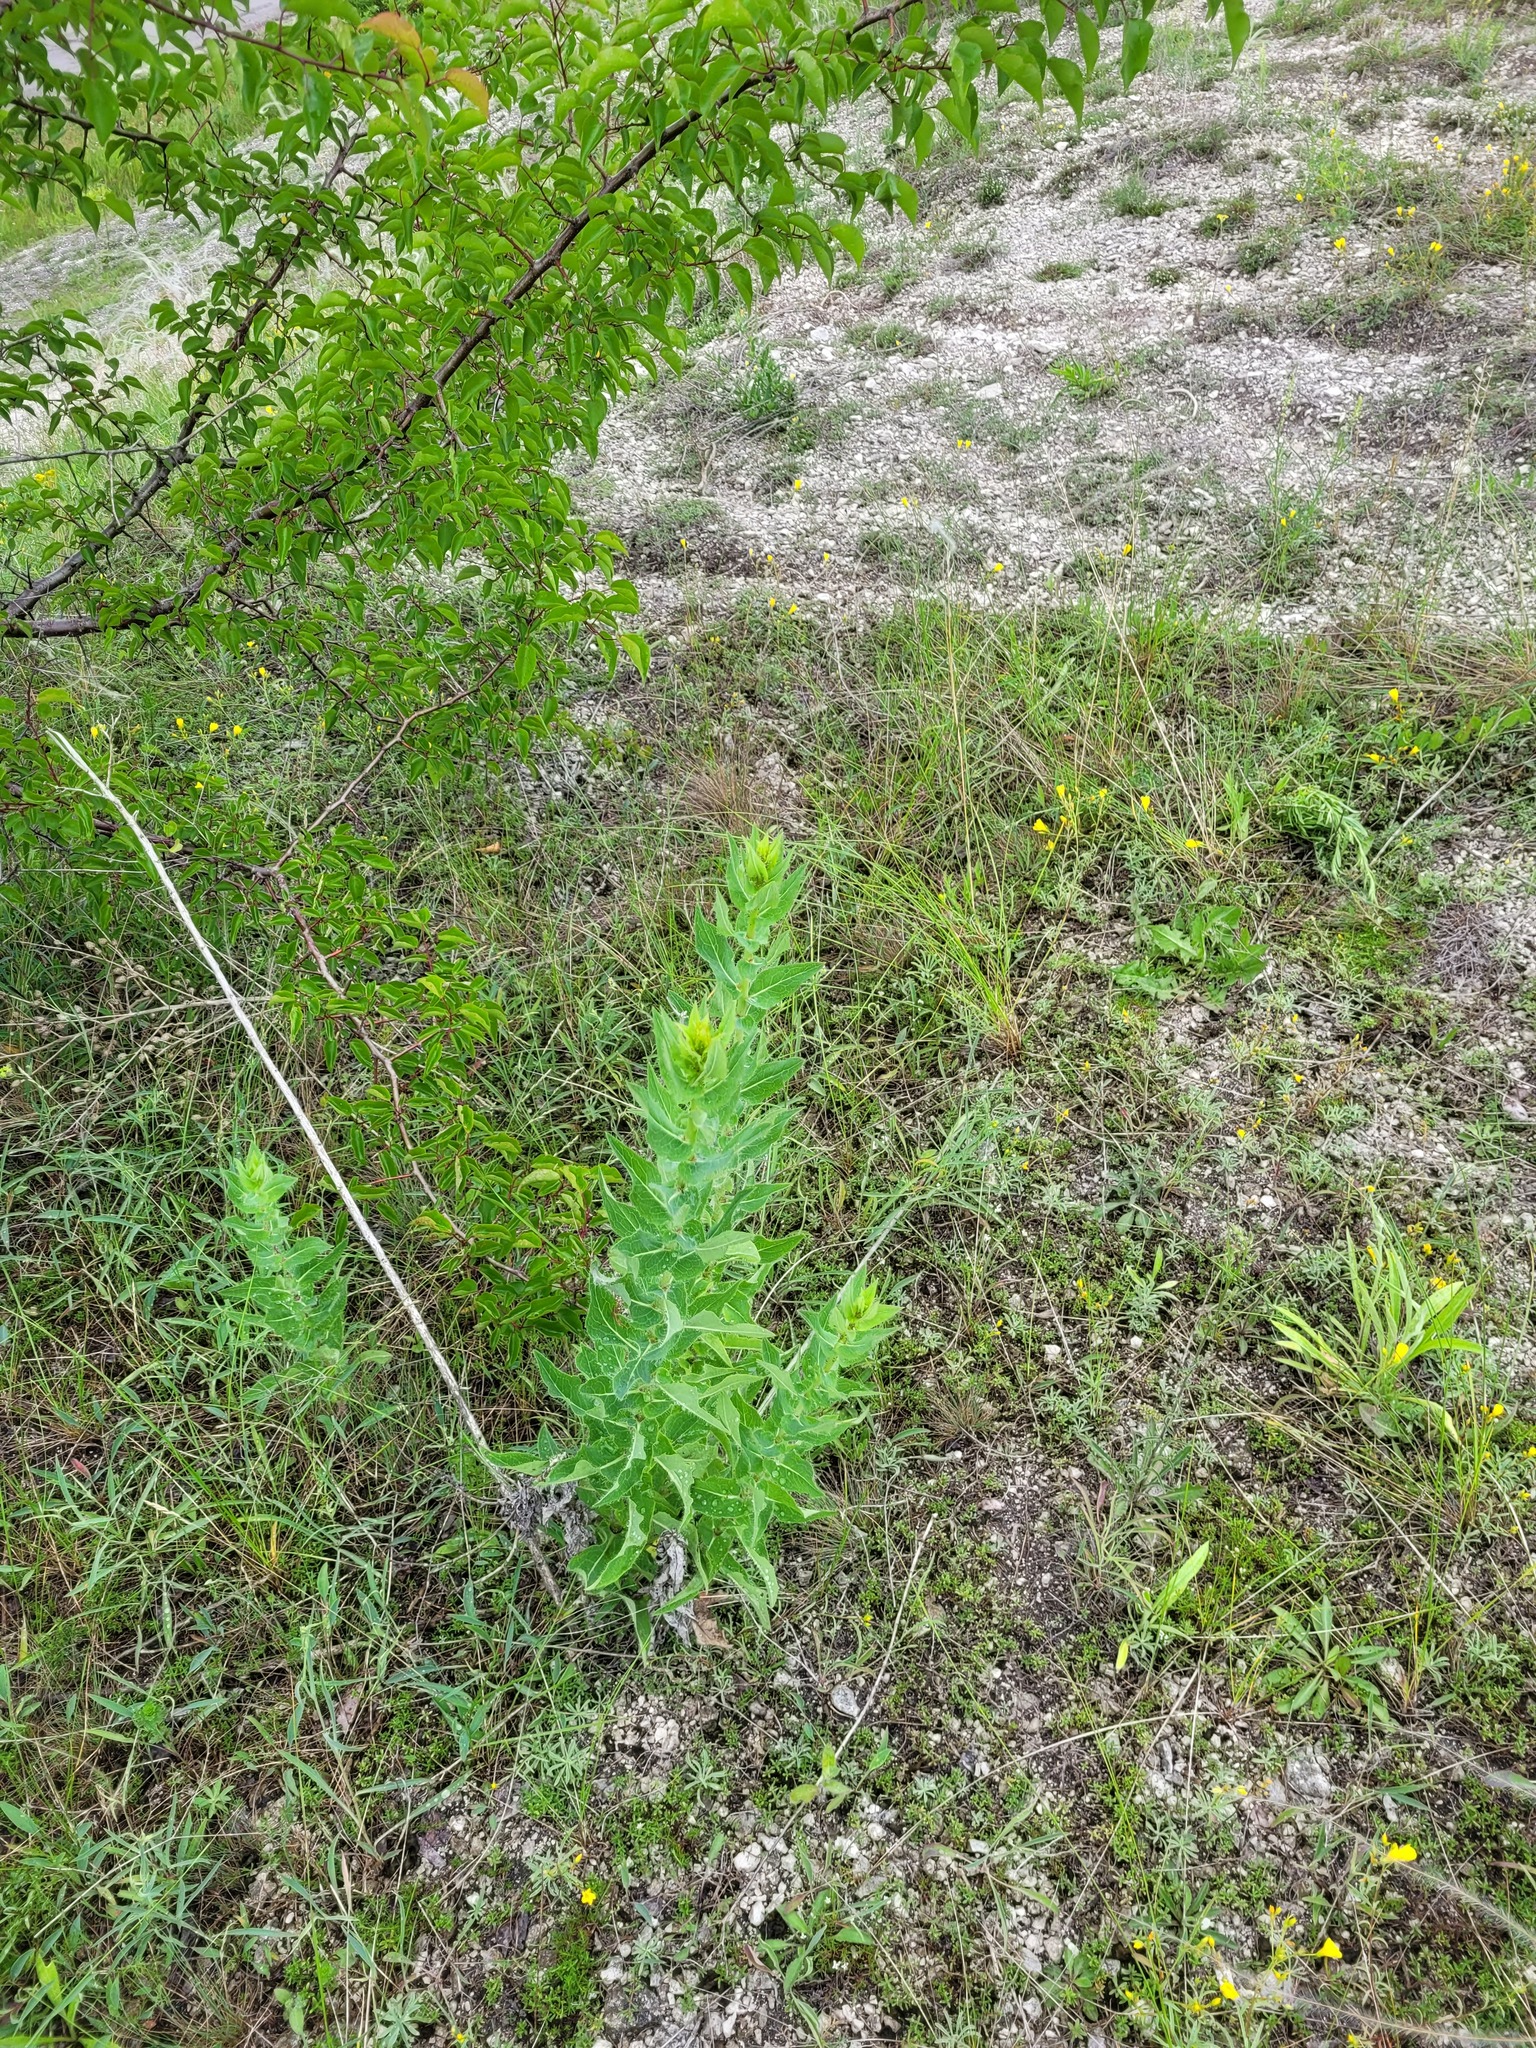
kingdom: Plantae
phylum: Tracheophyta
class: Magnoliopsida
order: Asterales
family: Asteraceae
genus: Hieracium
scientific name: Hieracium virosum
